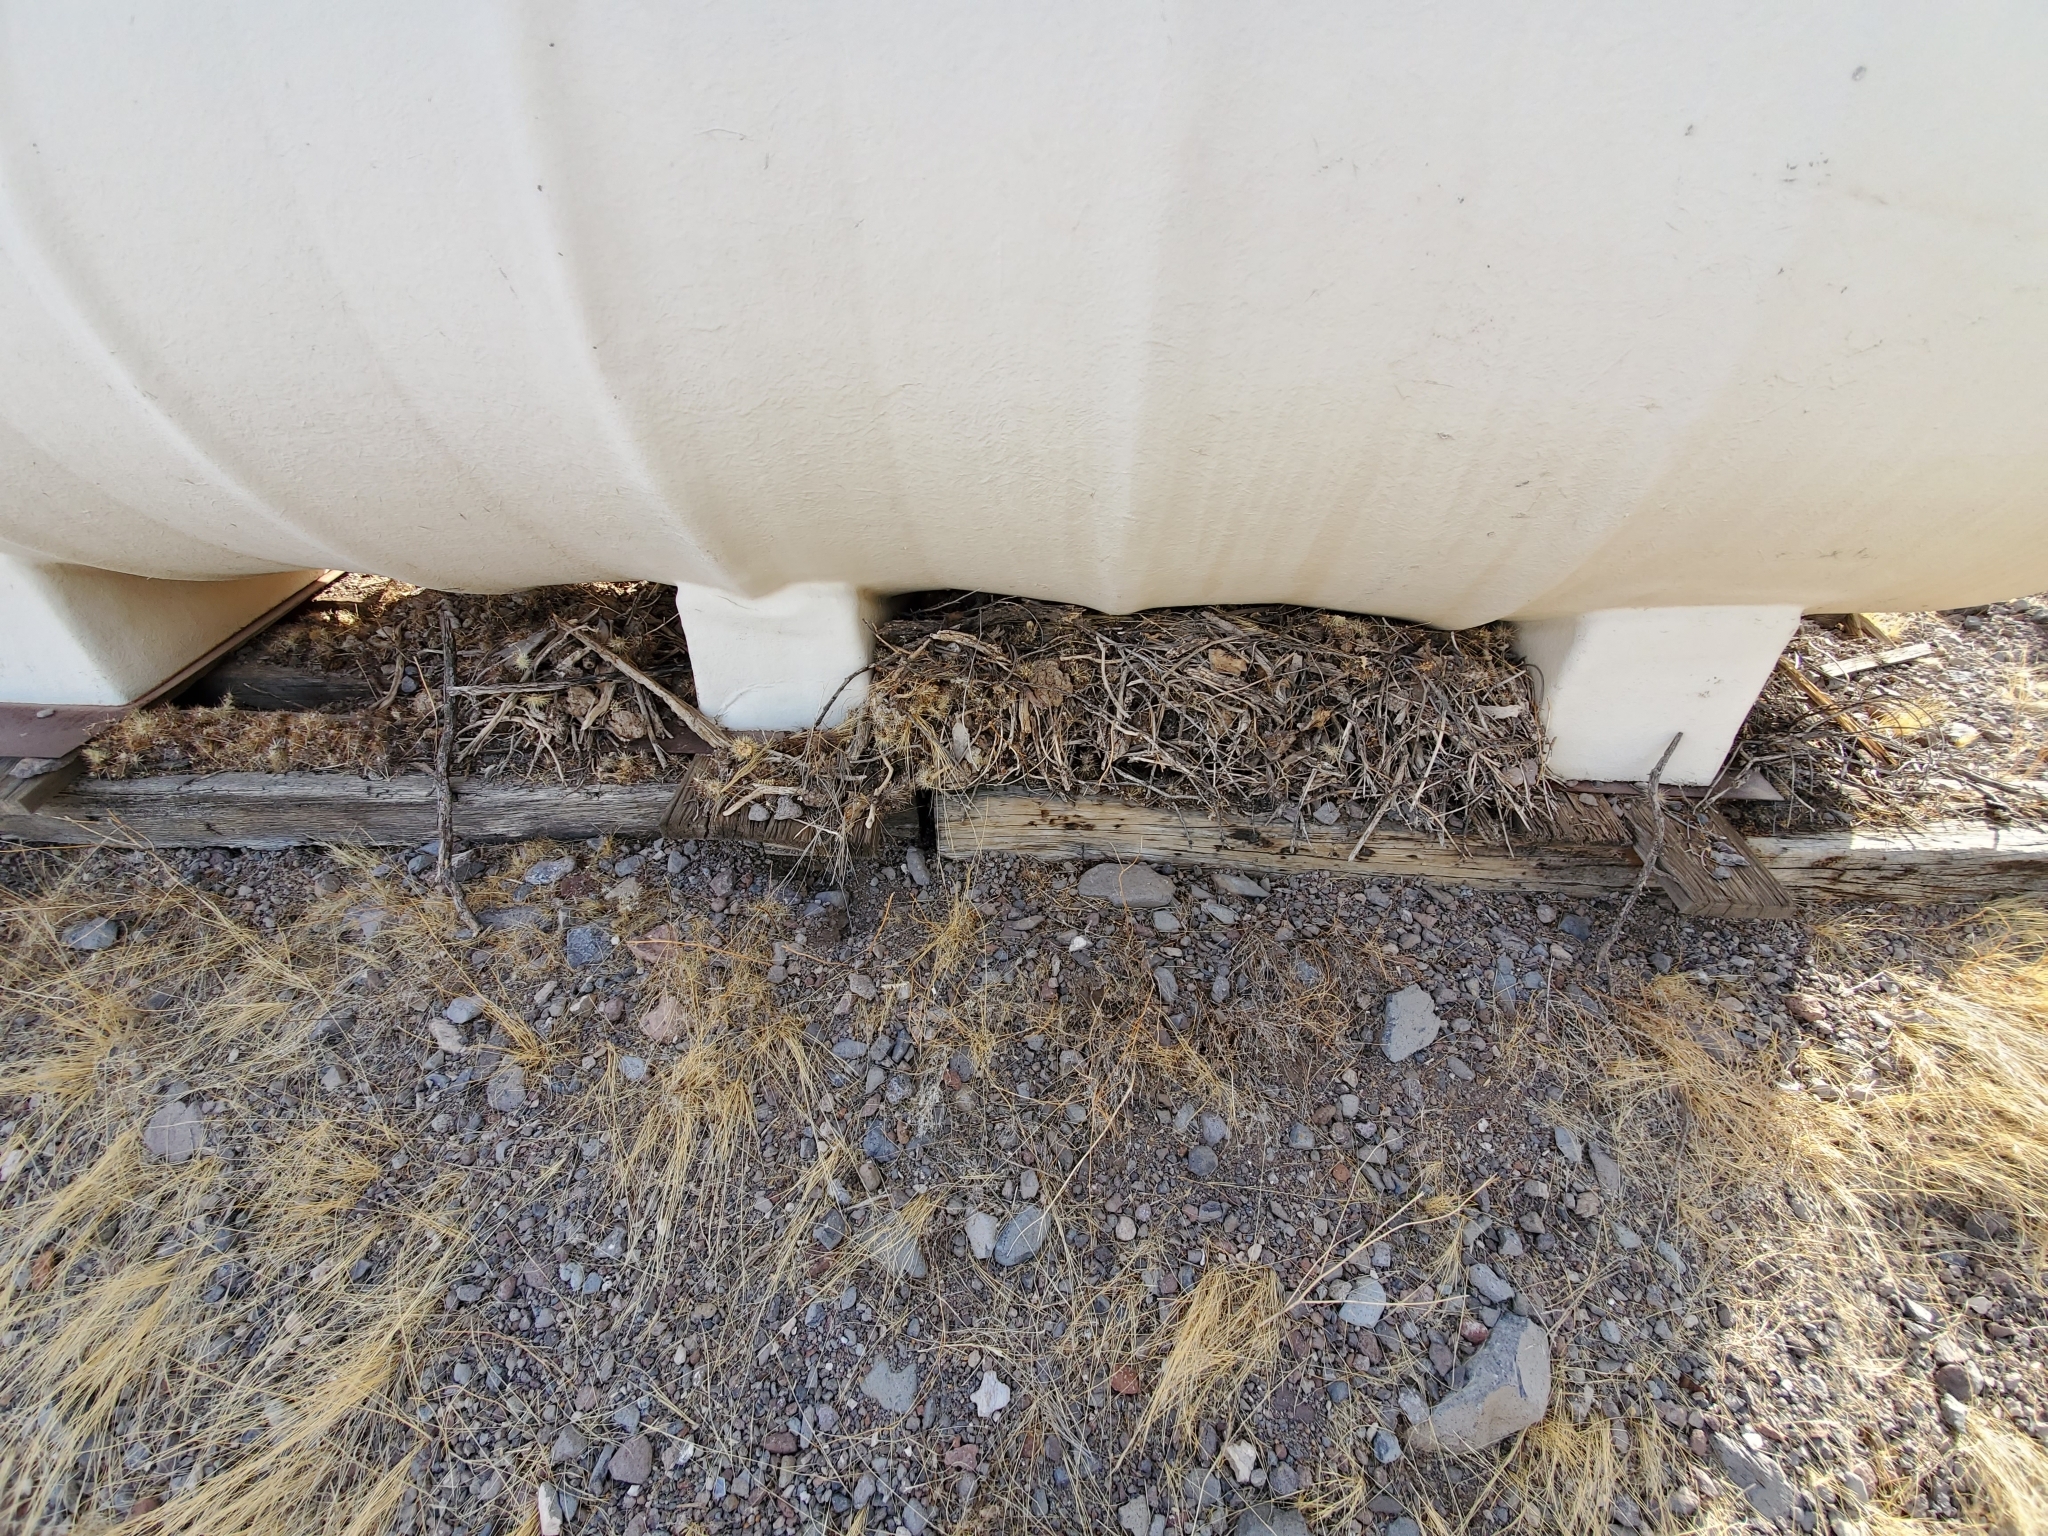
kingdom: Animalia
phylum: Chordata
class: Mammalia
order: Rodentia
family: Cricetidae
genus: Neotoma
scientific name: Neotoma
